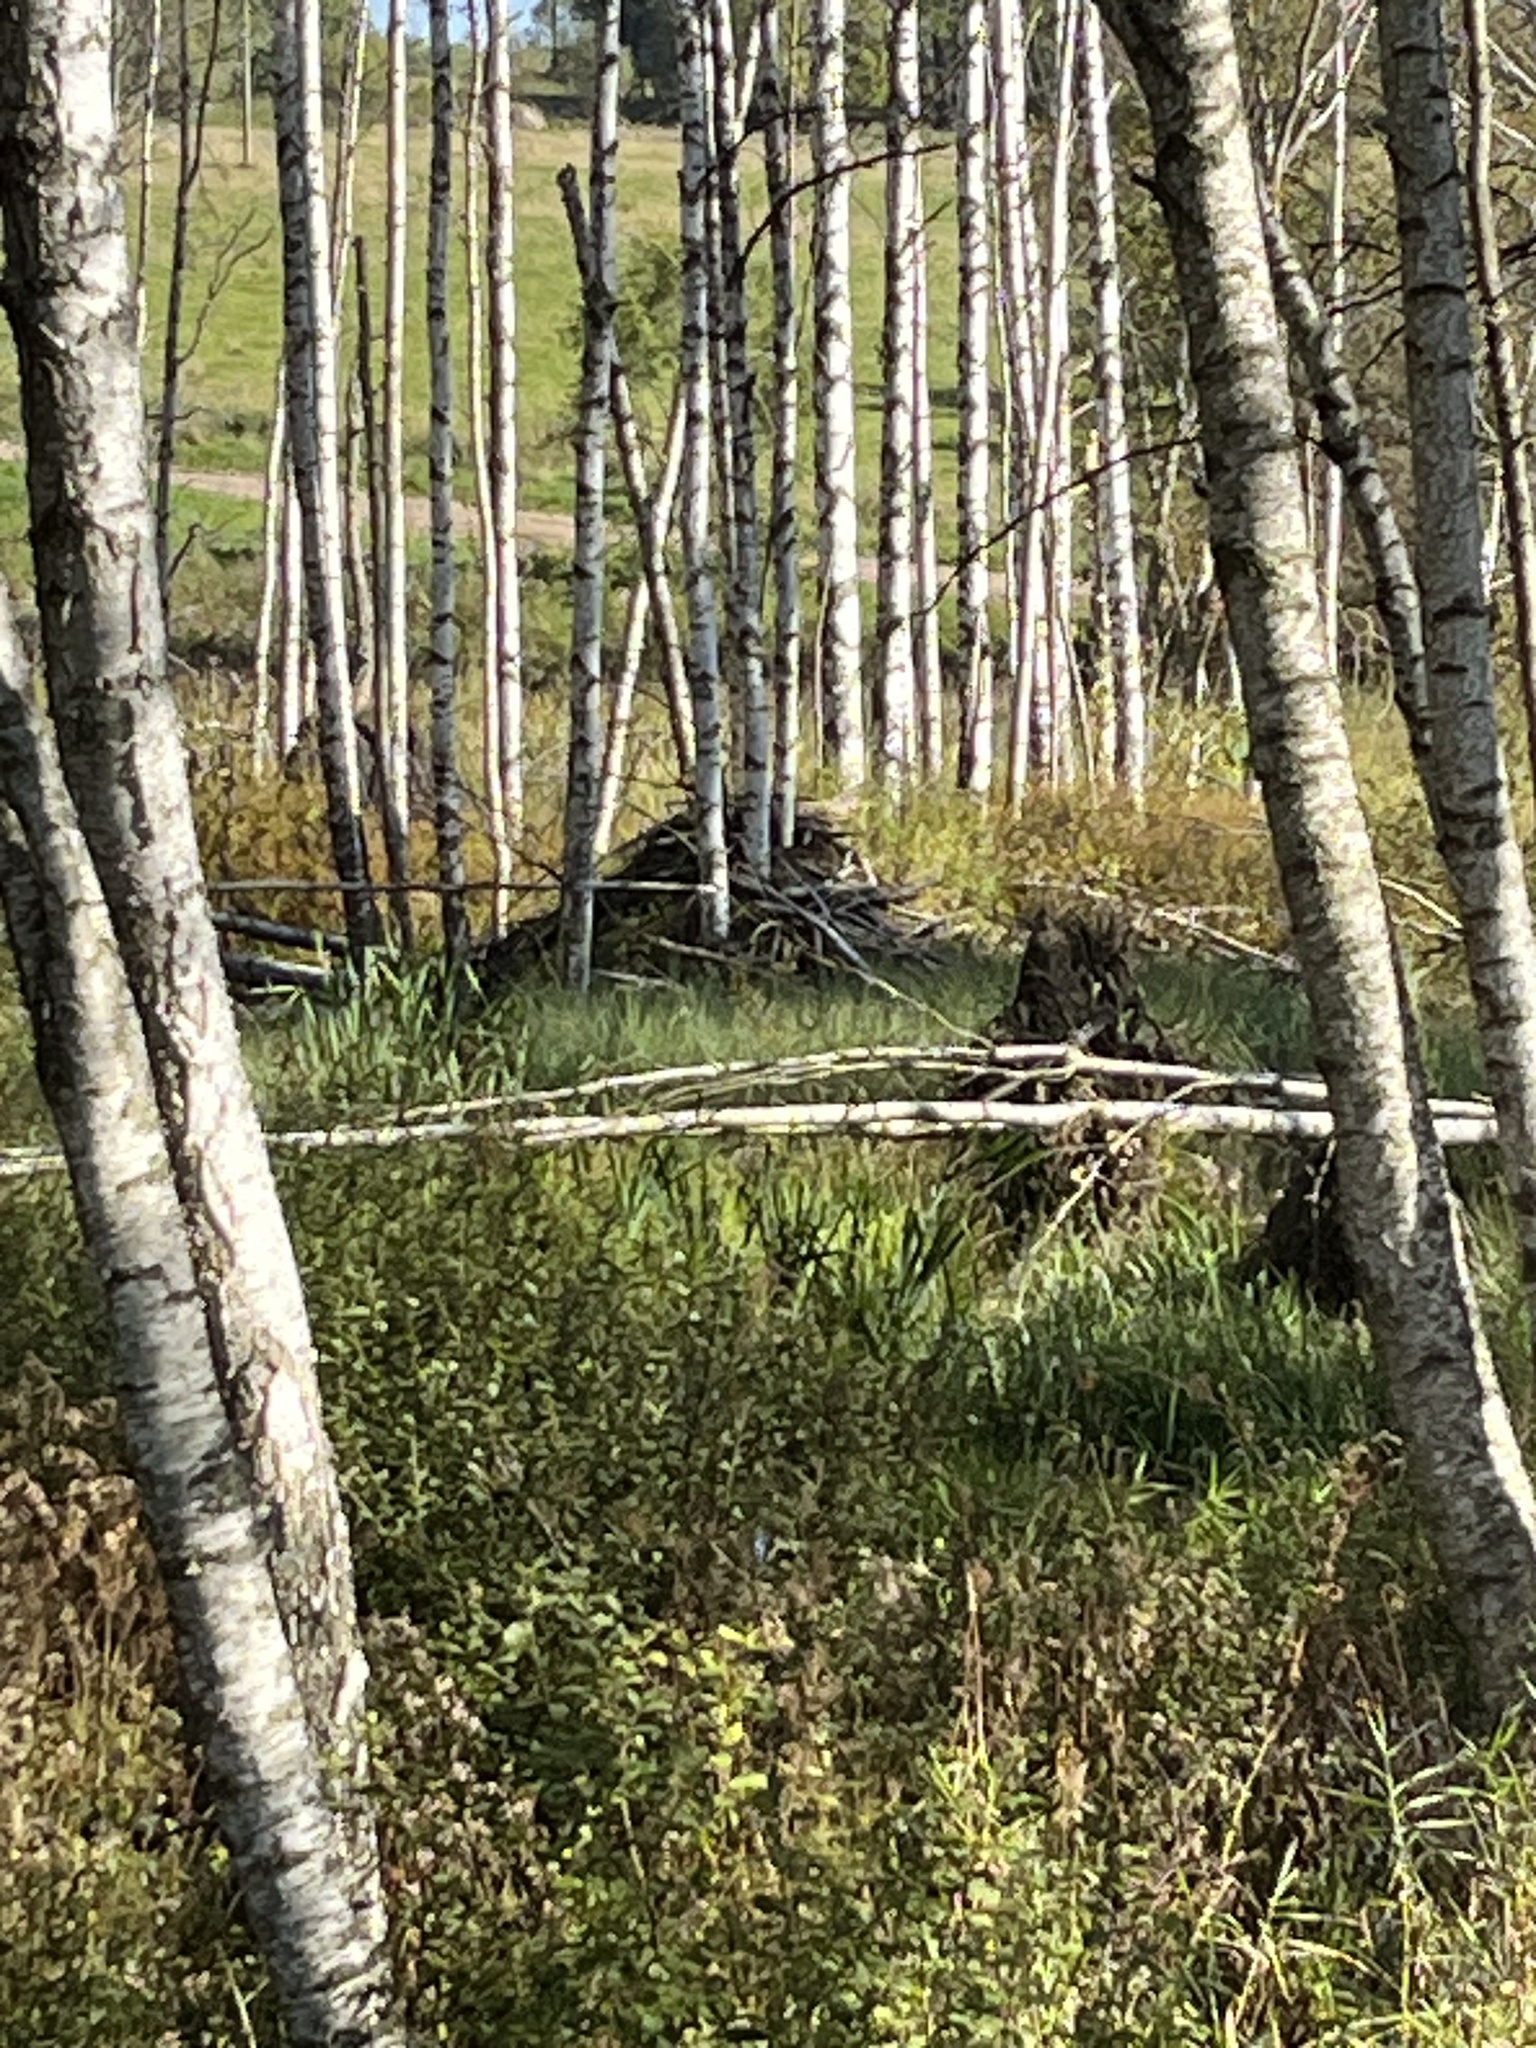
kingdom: Animalia
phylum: Chordata
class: Mammalia
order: Rodentia
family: Castoridae
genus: Castor
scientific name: Castor fiber
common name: Eurasian beaver
